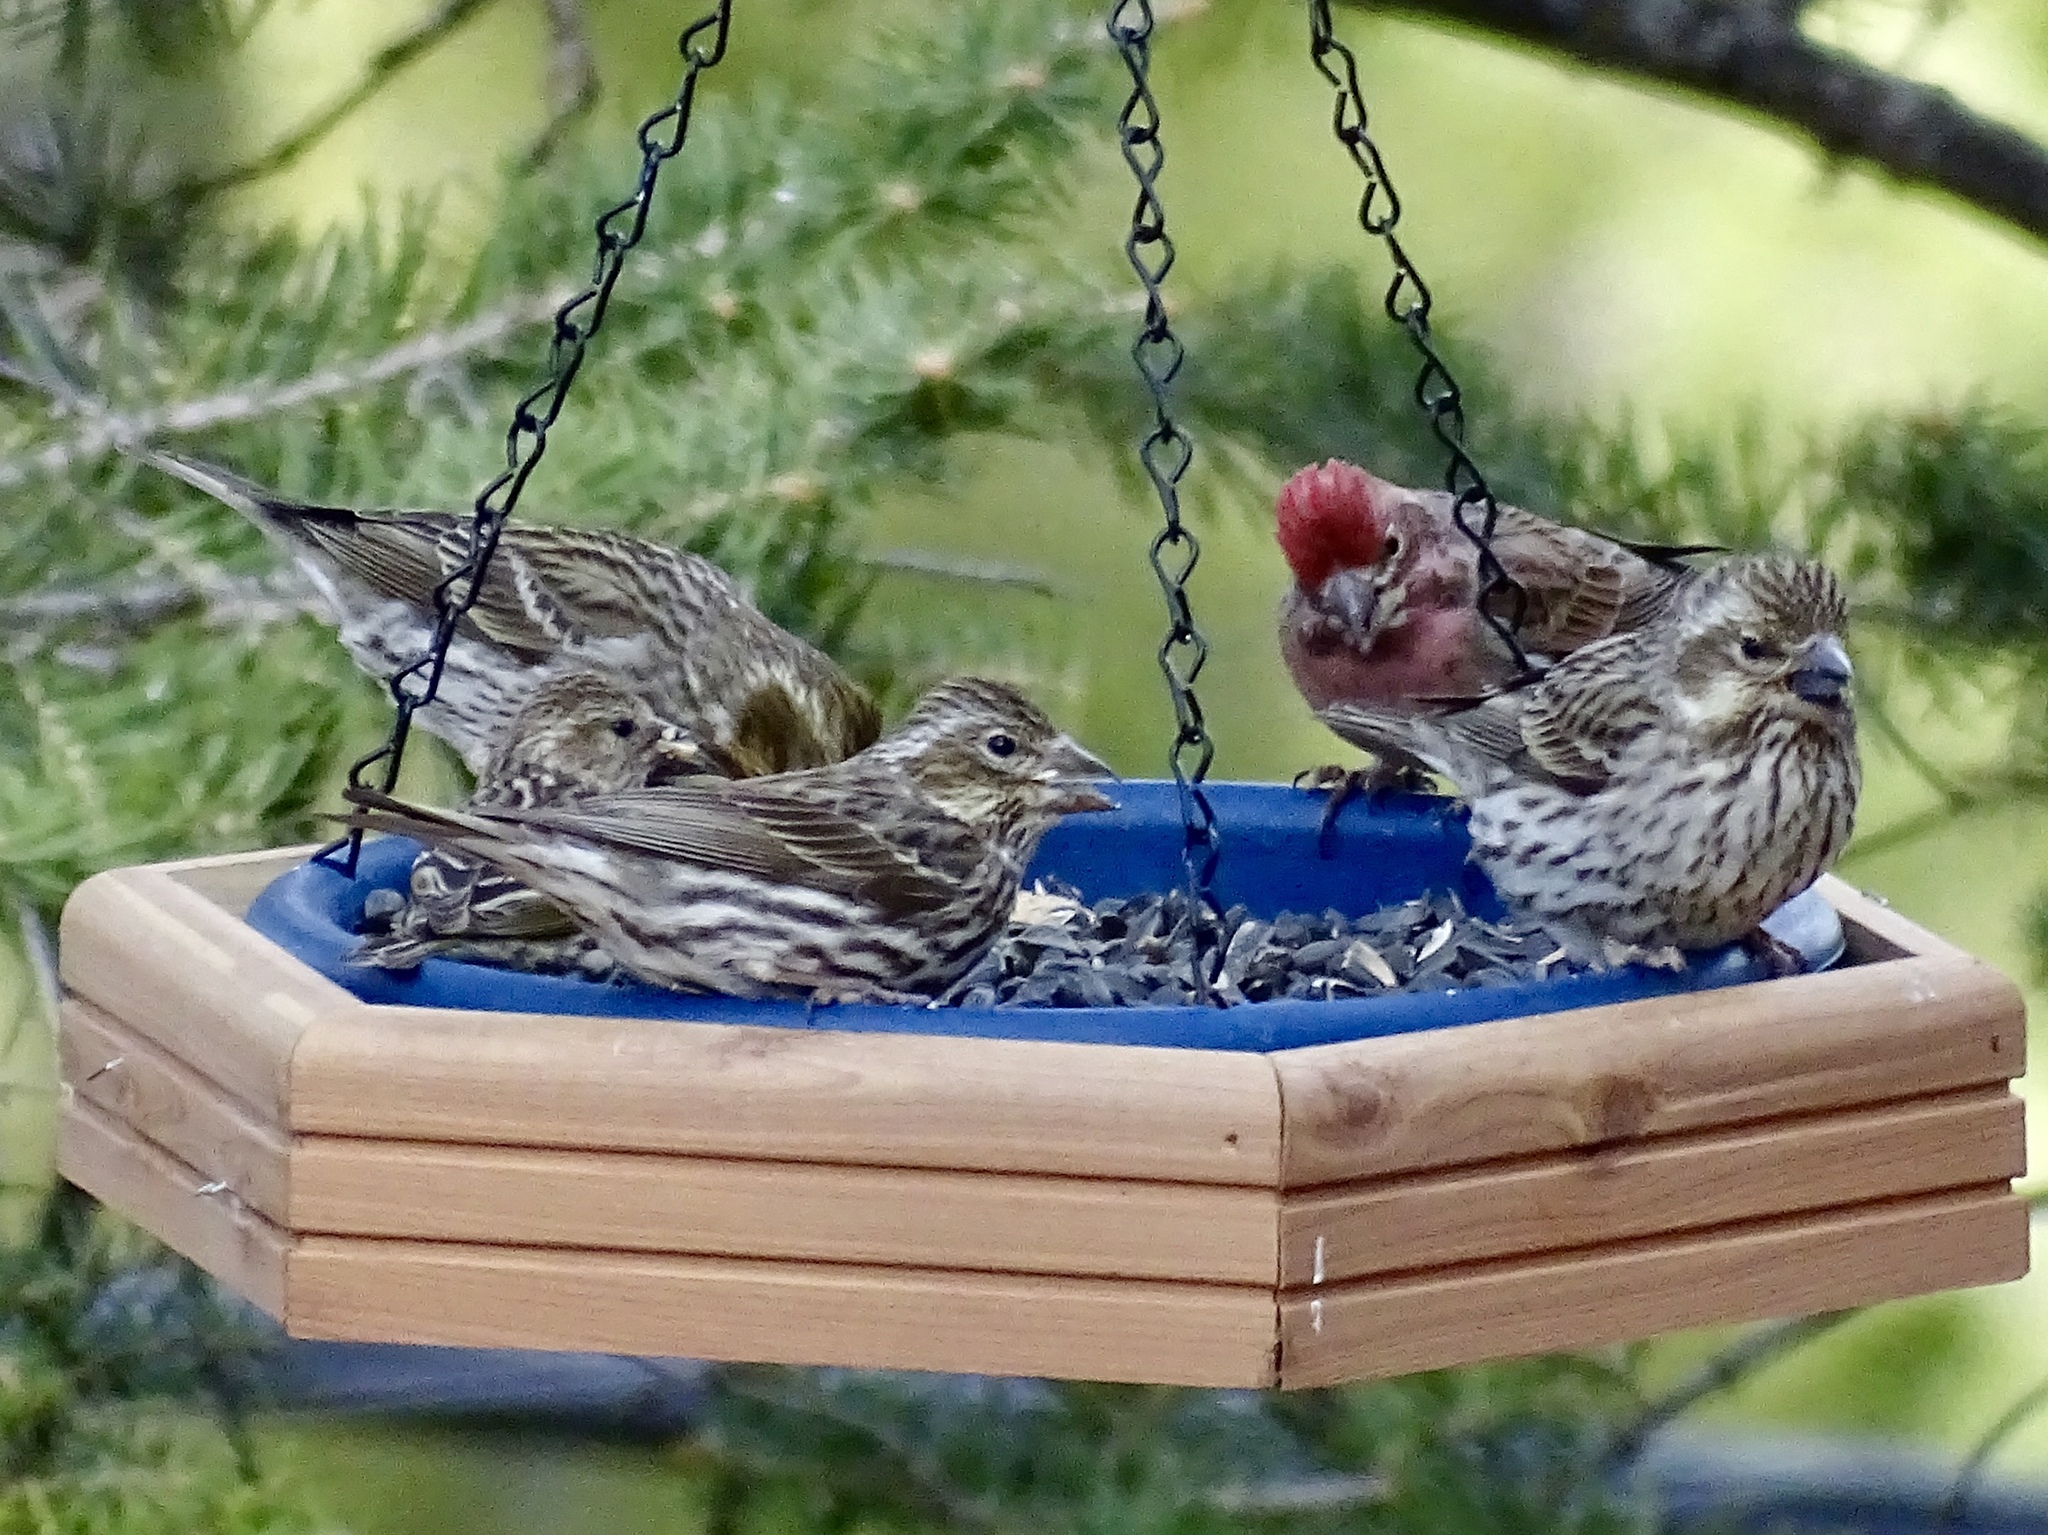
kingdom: Animalia
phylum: Chordata
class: Aves
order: Passeriformes
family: Fringillidae
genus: Haemorhous
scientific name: Haemorhous cassinii
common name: Cassin's finch
